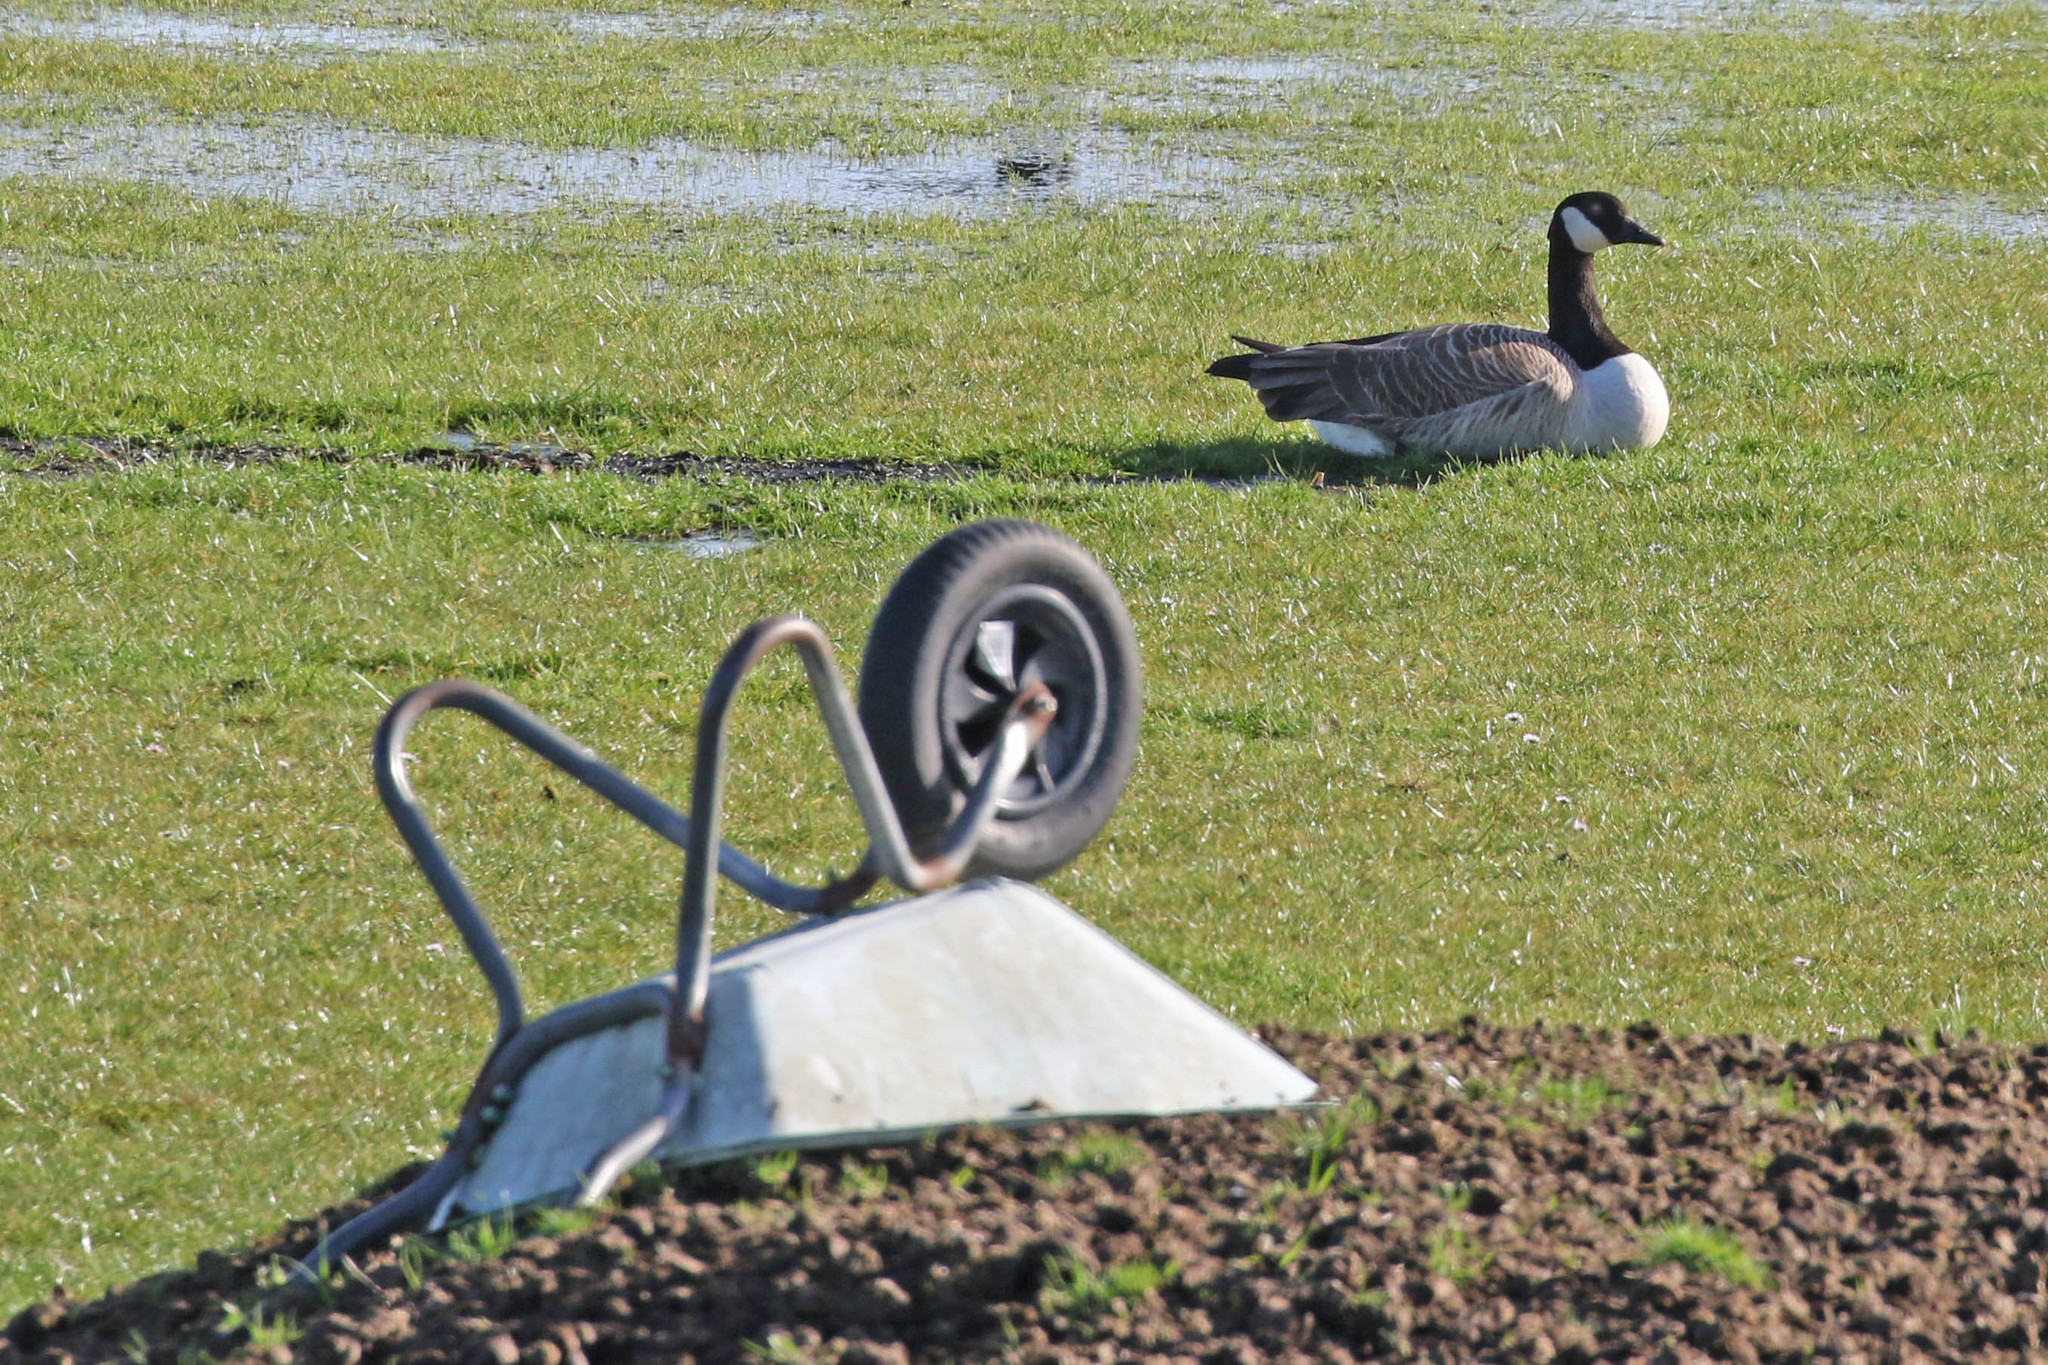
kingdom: Animalia
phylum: Chordata
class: Aves
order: Anseriformes
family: Anatidae
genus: Branta
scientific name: Branta canadensis
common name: Canada goose
